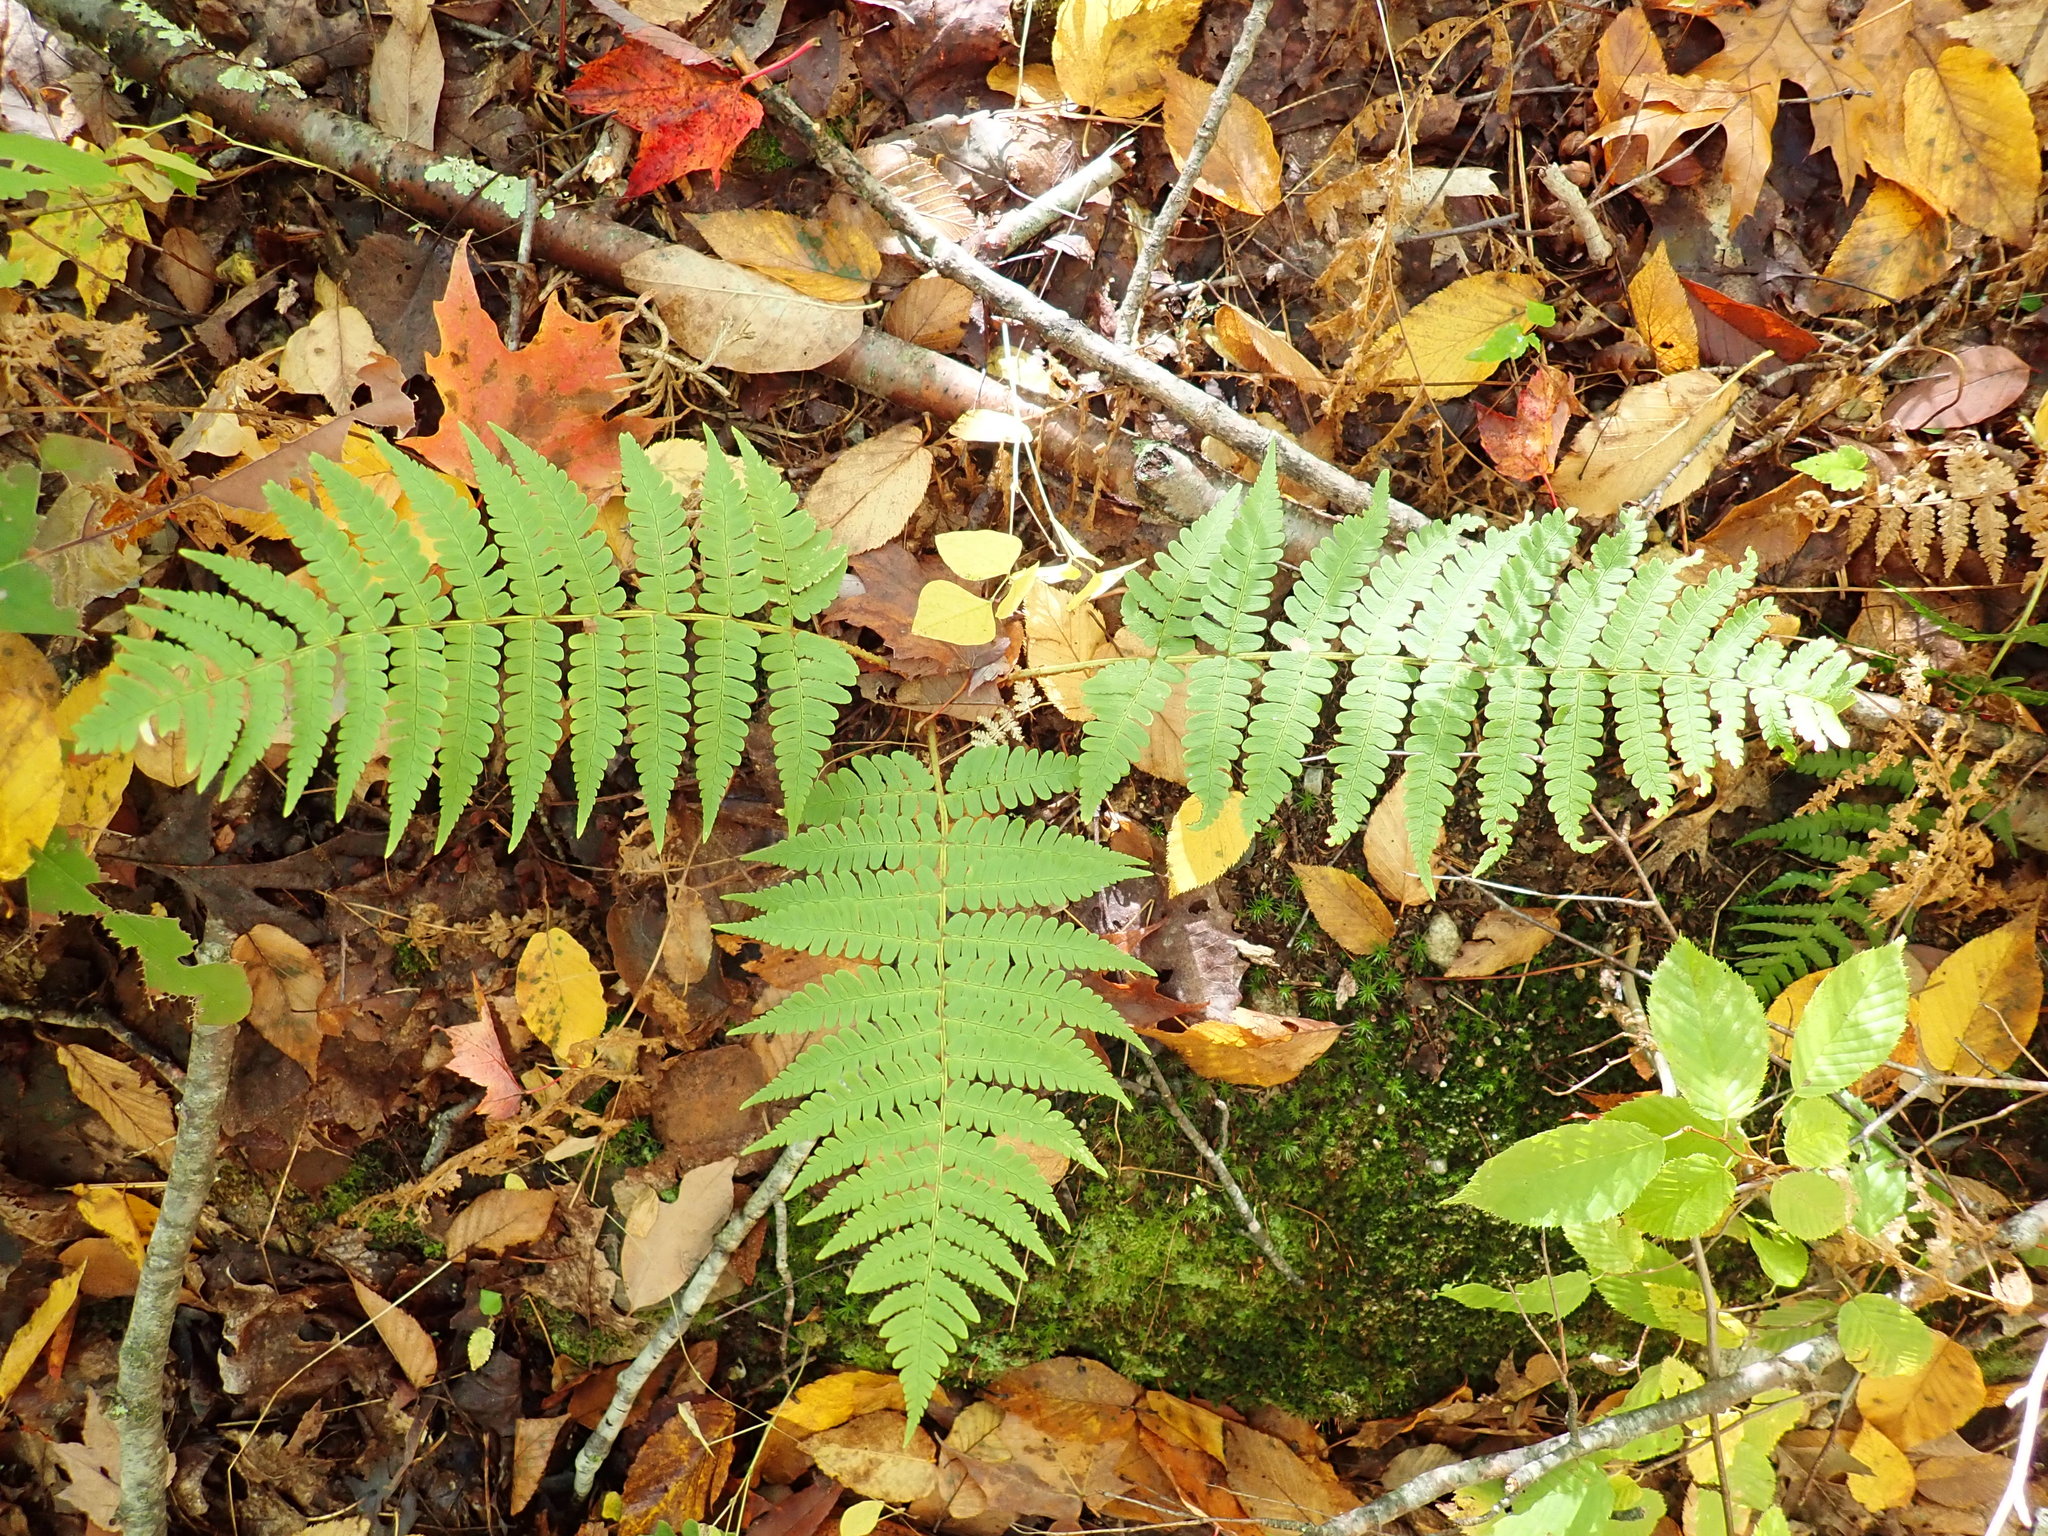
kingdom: Plantae
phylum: Tracheophyta
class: Polypodiopsida
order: Polypodiales
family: Dryopteridaceae
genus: Dryopteris
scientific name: Dryopteris marginalis
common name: Marginal wood fern
